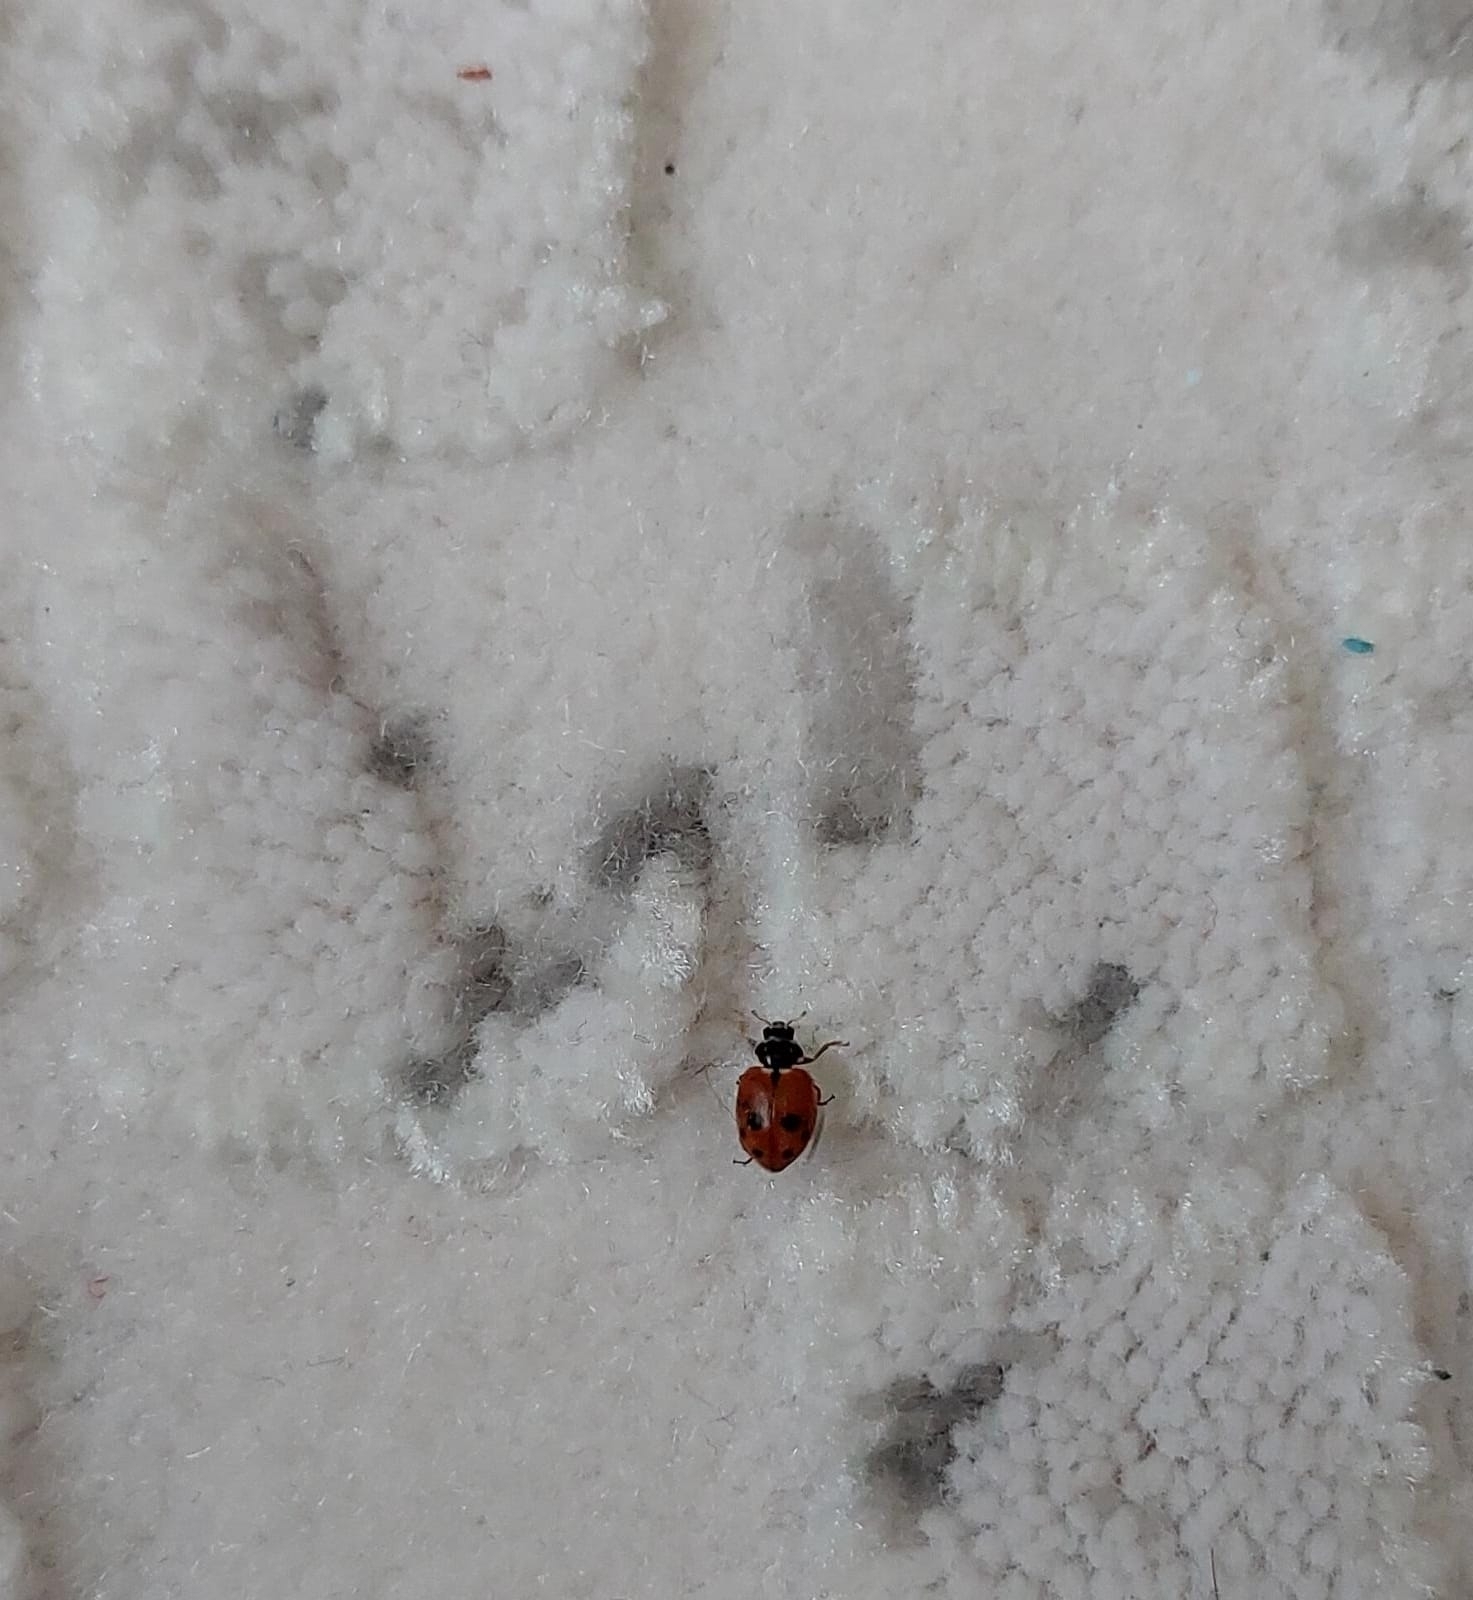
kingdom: Animalia
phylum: Arthropoda
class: Insecta
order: Coleoptera
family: Coccinellidae
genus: Hippodamia
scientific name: Hippodamia variegata
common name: Ladybird beetle
